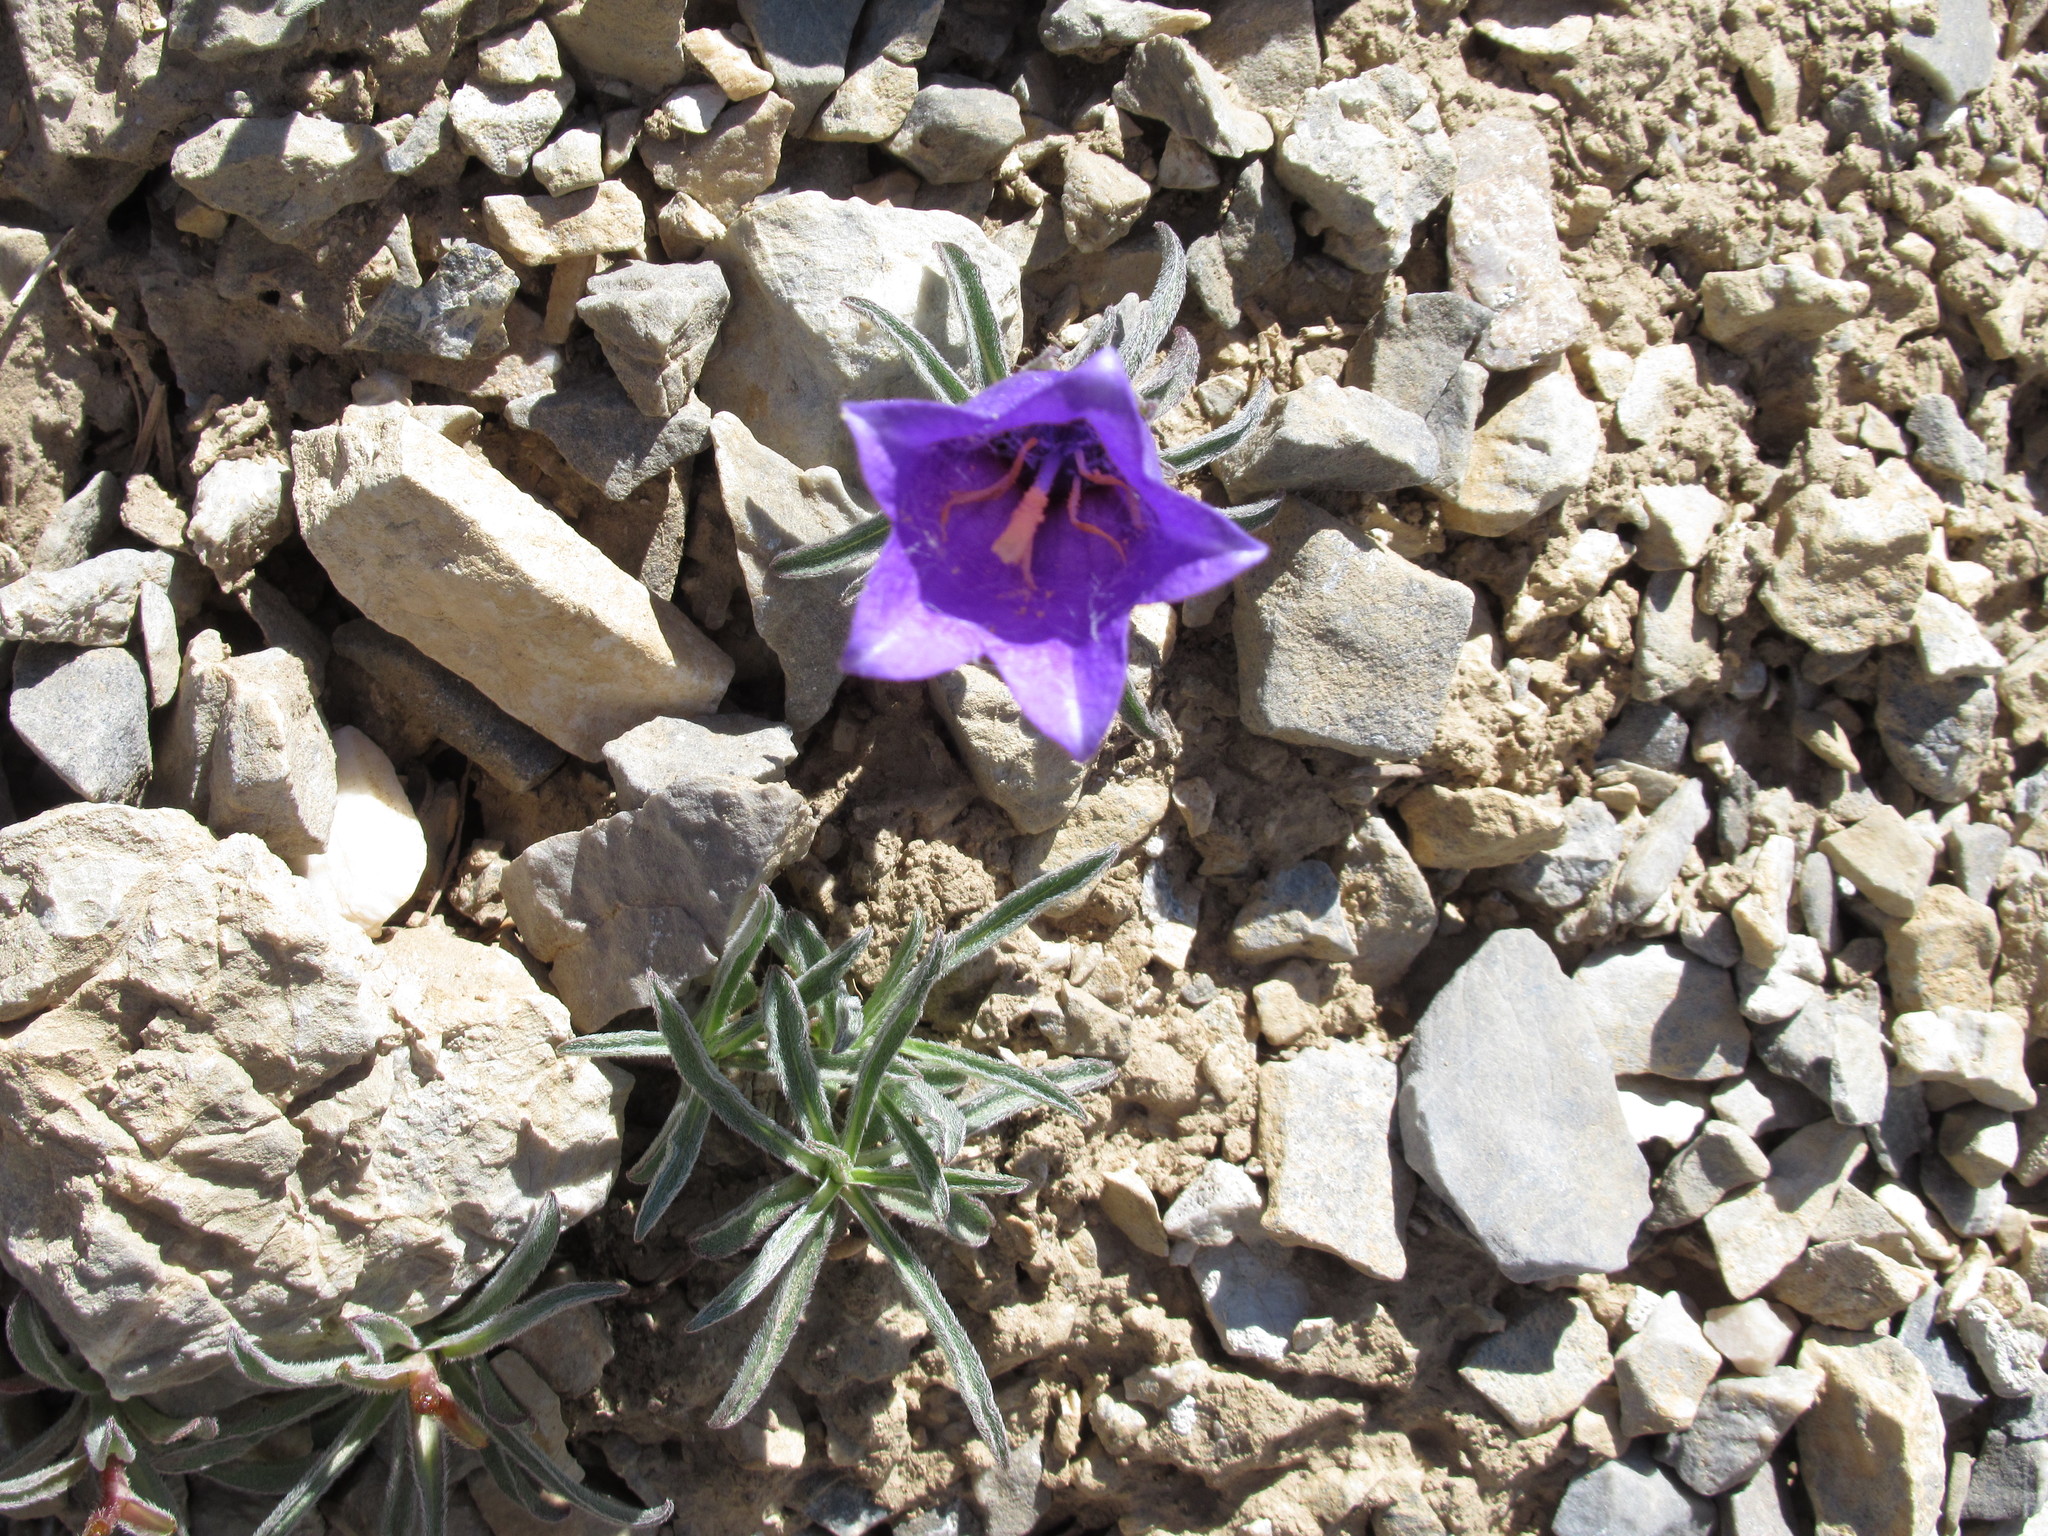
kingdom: Plantae
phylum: Tracheophyta
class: Magnoliopsida
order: Asterales
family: Campanulaceae
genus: Campanula
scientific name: Campanula alpestris
